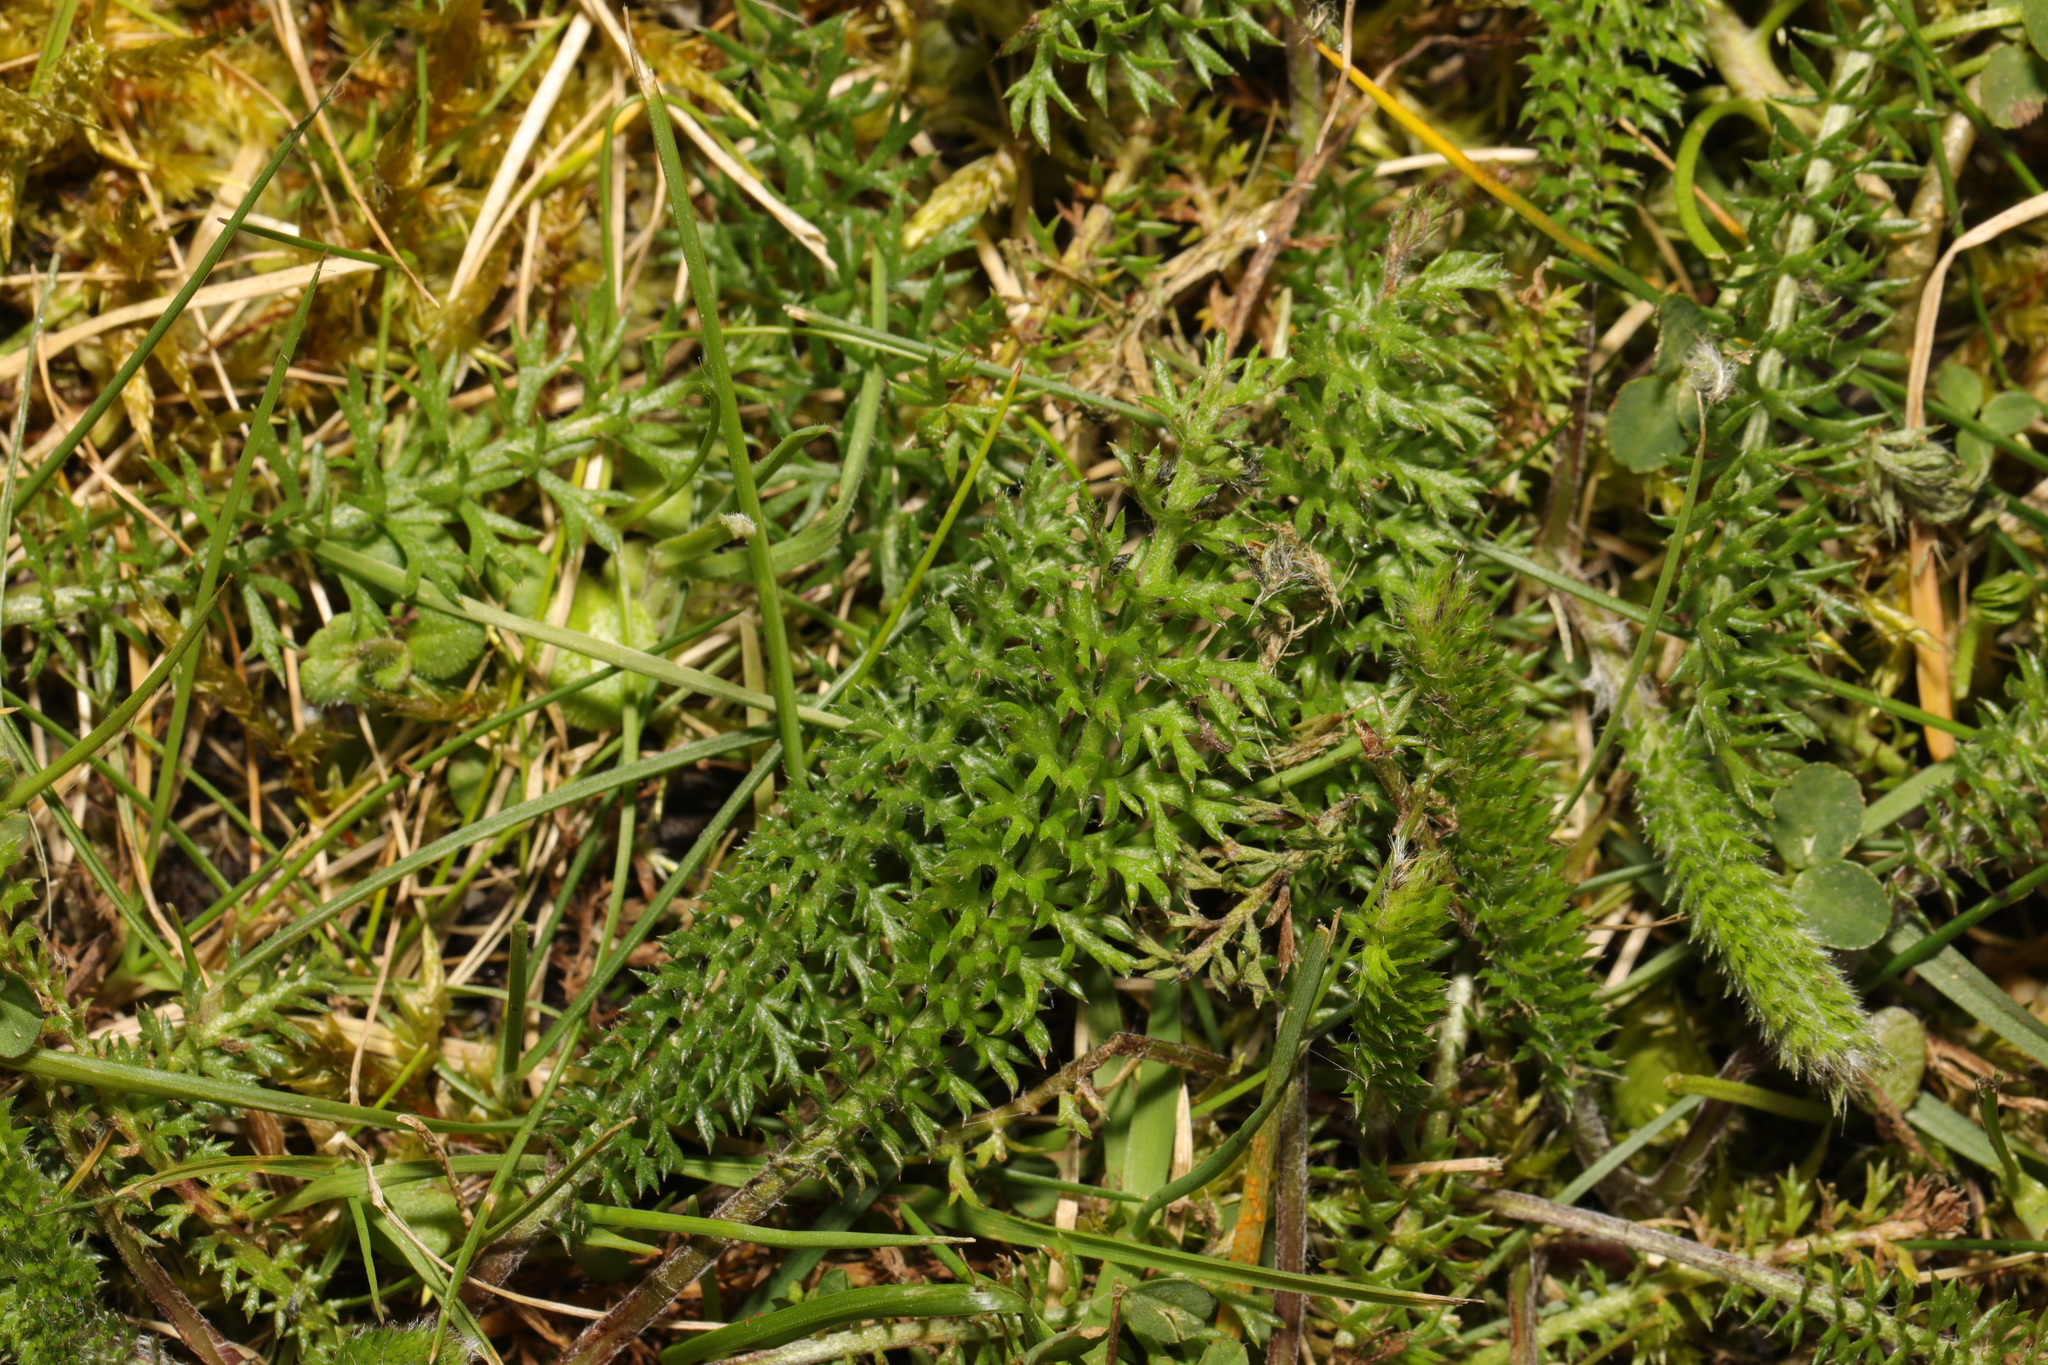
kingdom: Plantae
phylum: Tracheophyta
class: Magnoliopsida
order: Asterales
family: Asteraceae
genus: Achillea
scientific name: Achillea millefolium
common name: Yarrow
